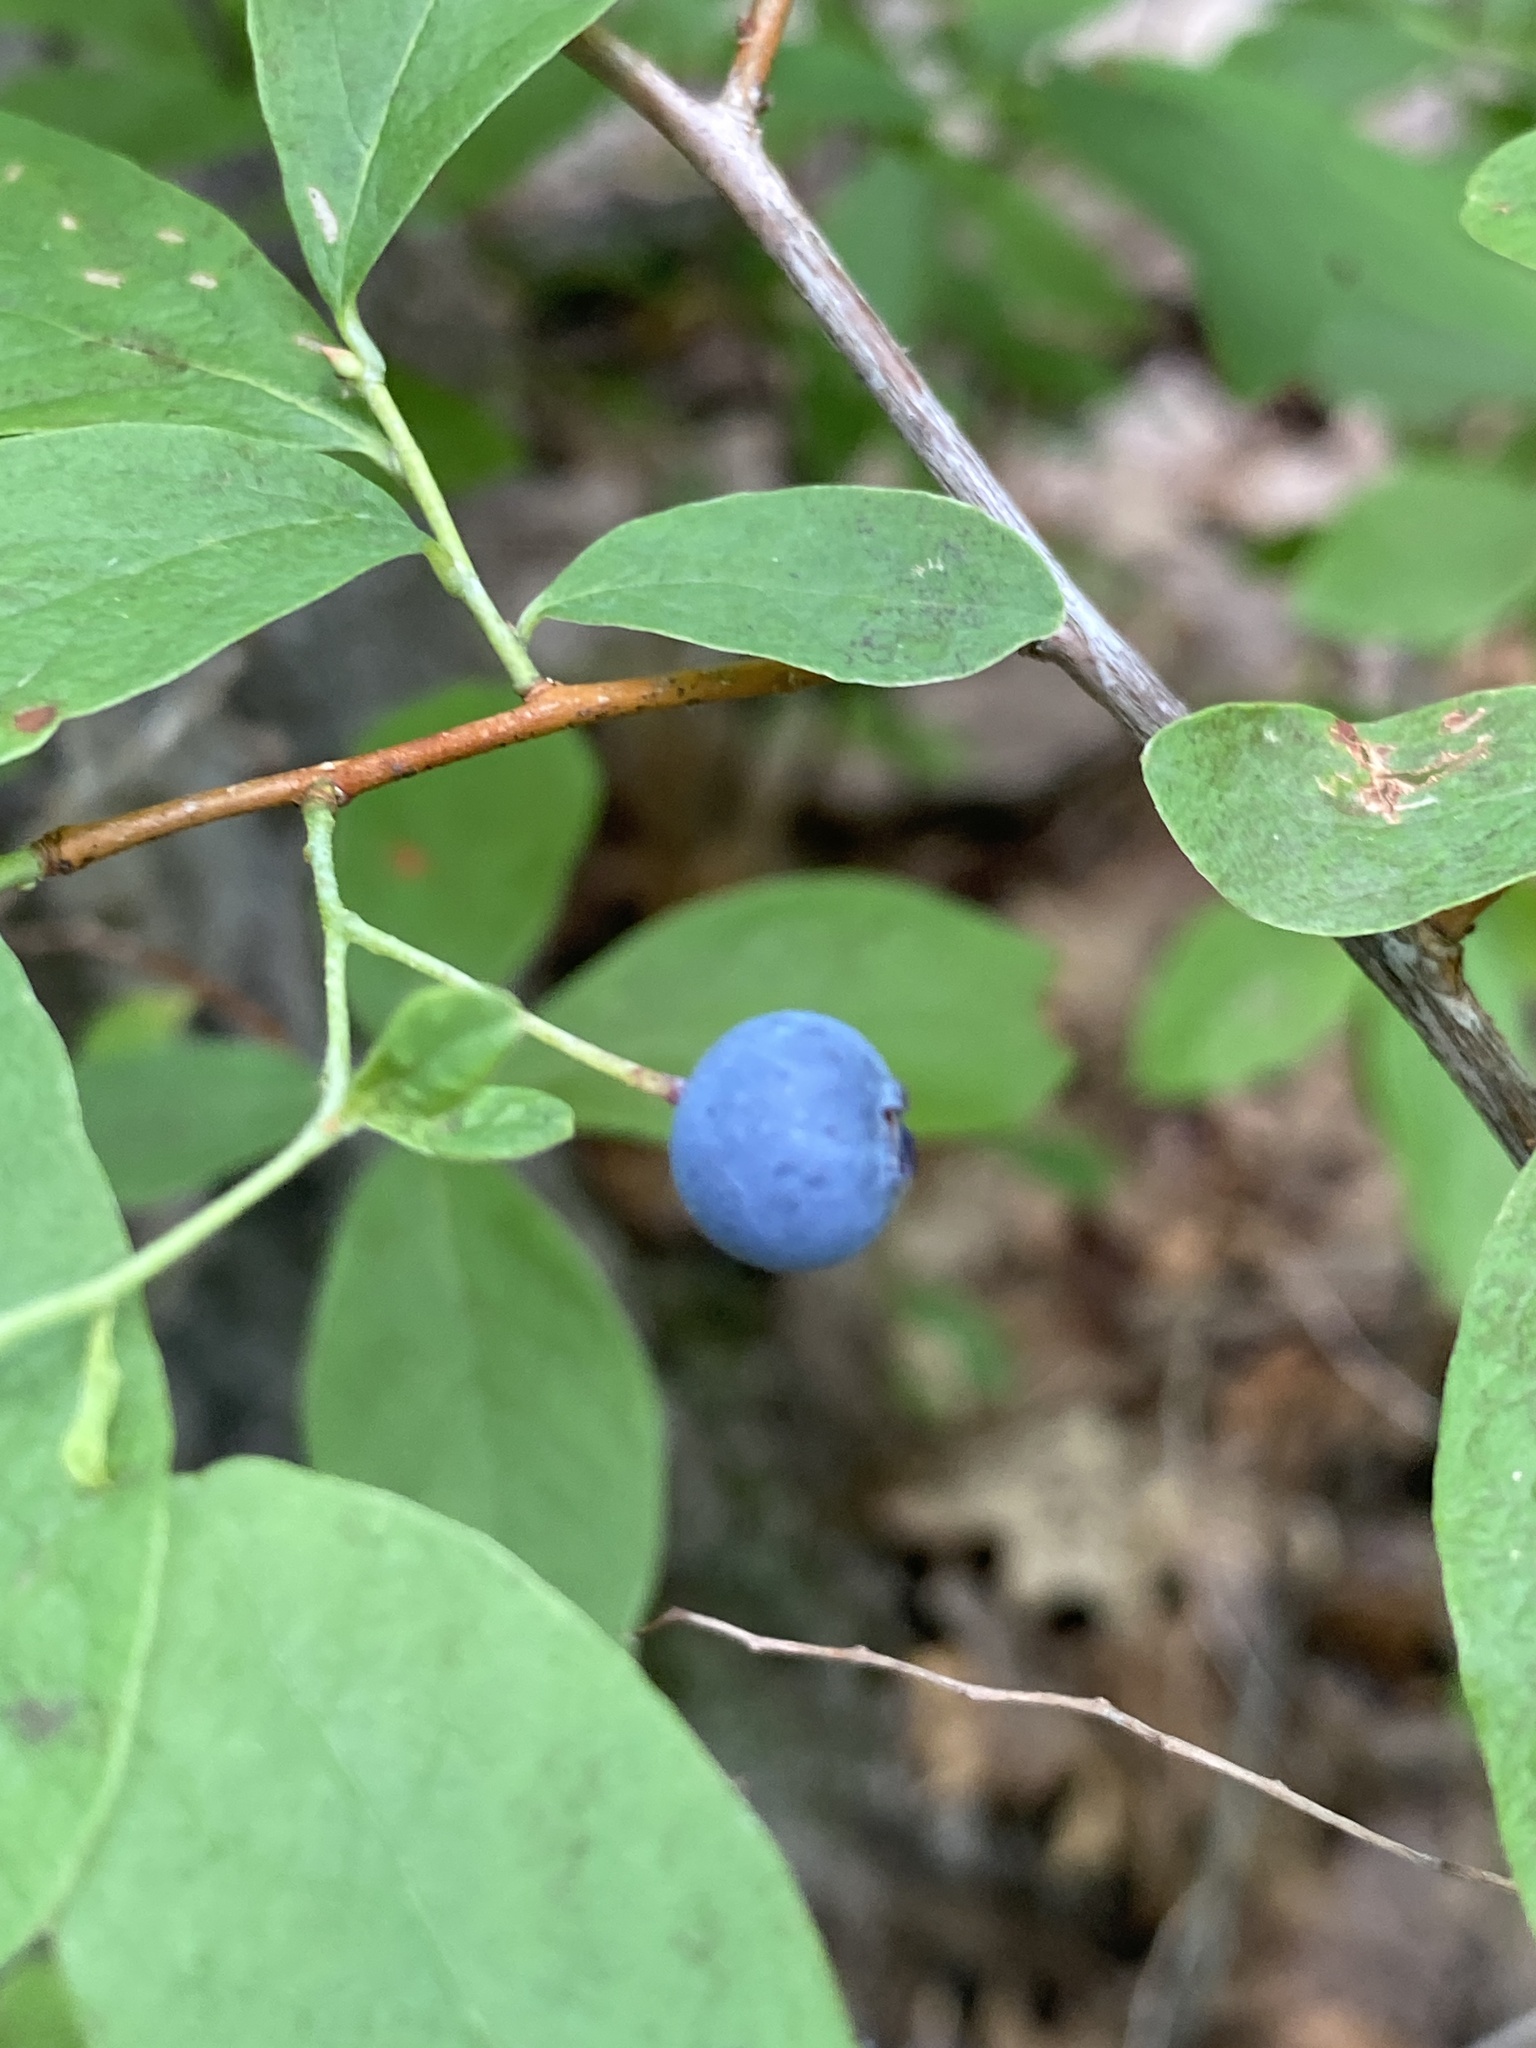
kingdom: Plantae
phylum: Tracheophyta
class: Magnoliopsida
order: Ericales
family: Ericaceae
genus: Gaylussacia
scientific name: Gaylussacia frondosa
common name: Dangleberry
